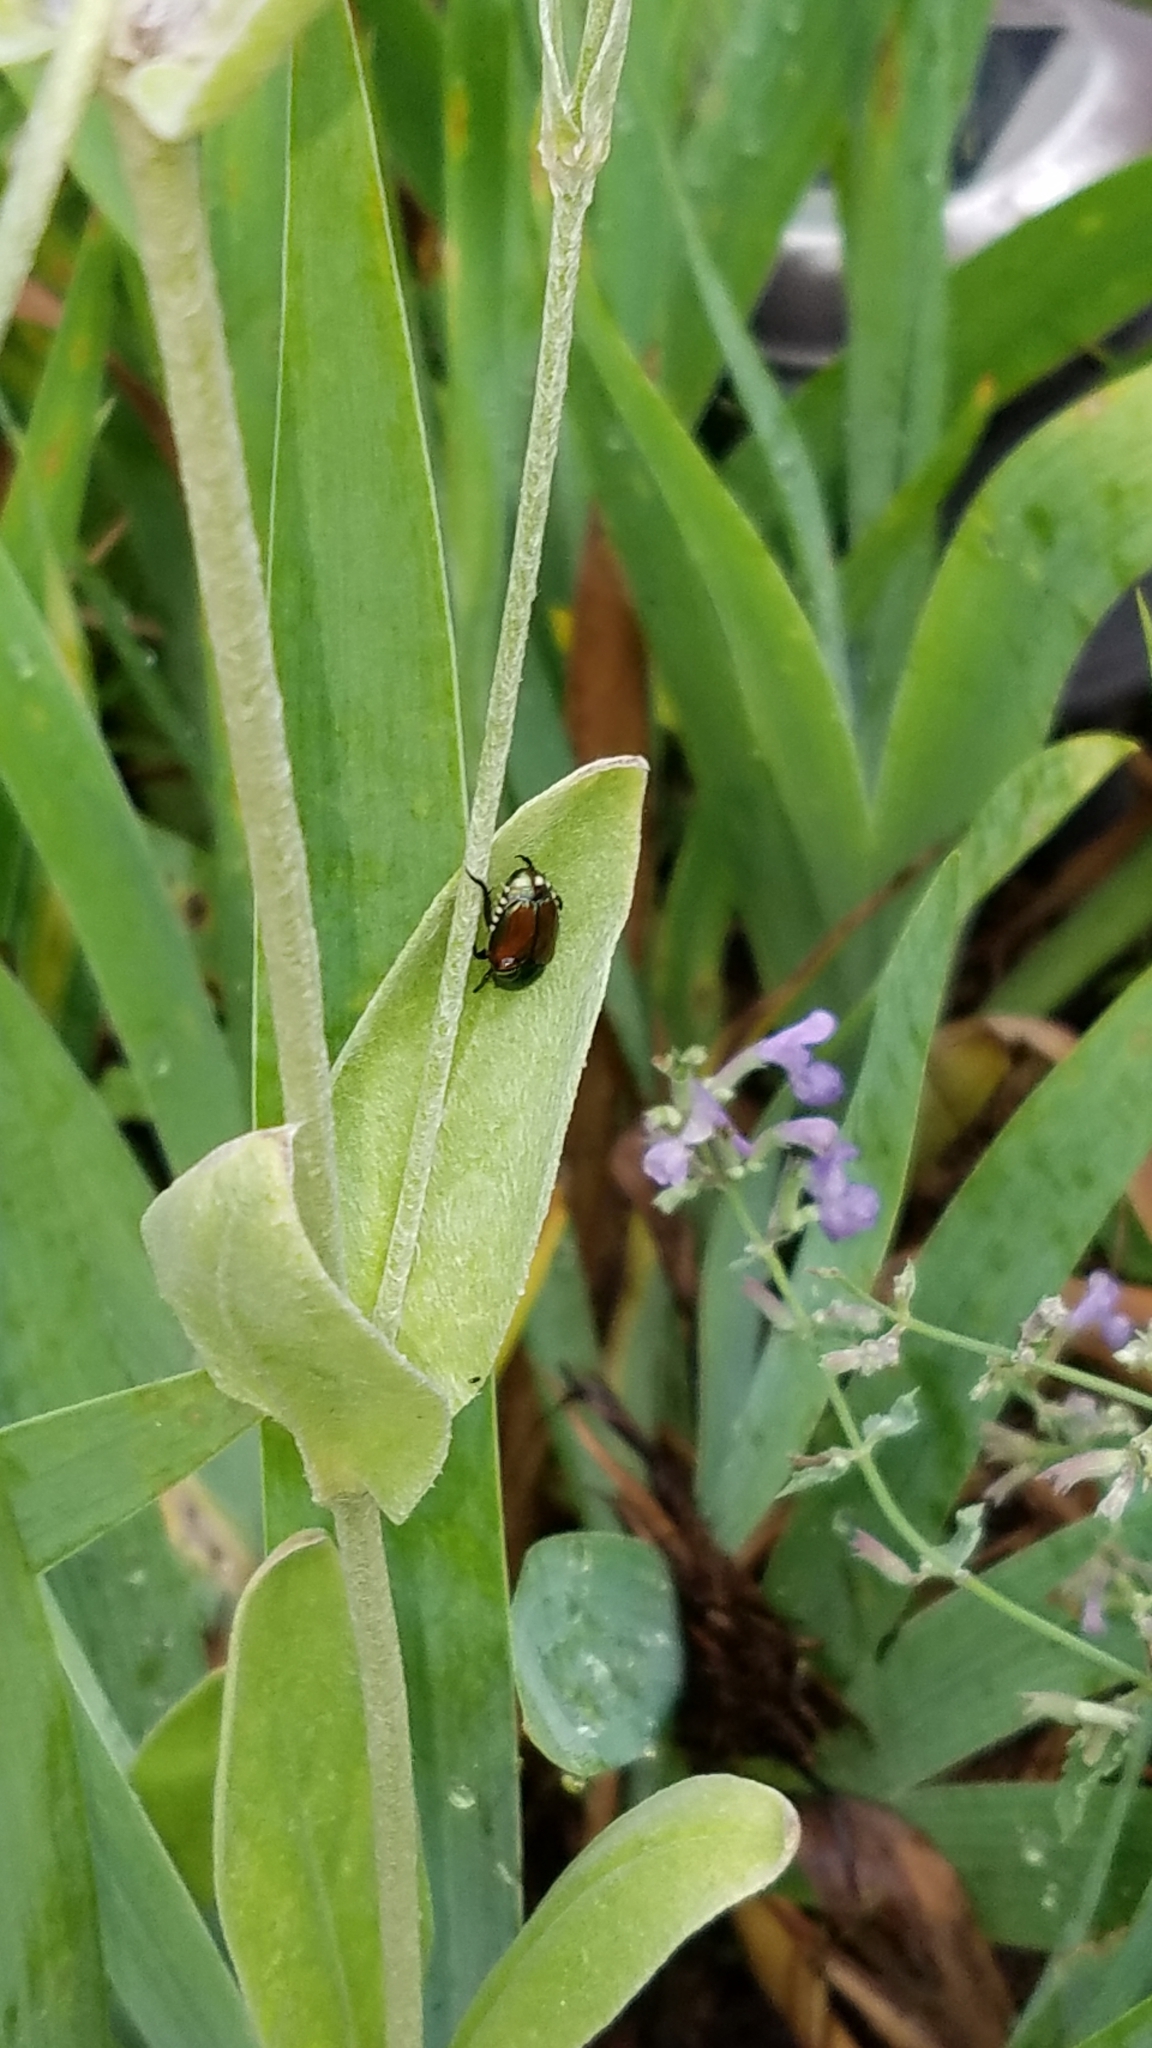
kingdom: Animalia
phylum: Arthropoda
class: Insecta
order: Coleoptera
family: Scarabaeidae
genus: Popillia
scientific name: Popillia japonica
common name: Japanese beetle
